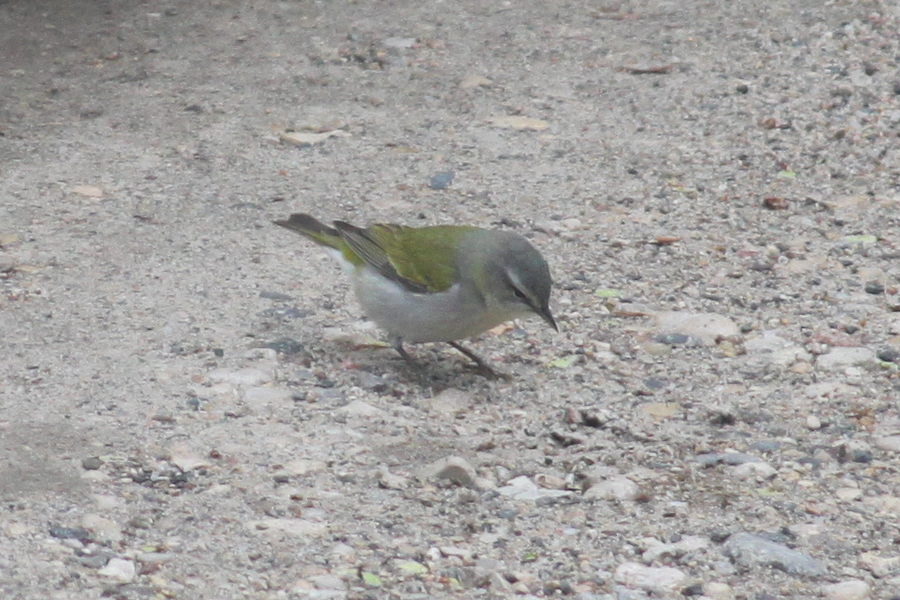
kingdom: Animalia
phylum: Chordata
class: Aves
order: Passeriformes
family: Parulidae
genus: Leiothlypis
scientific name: Leiothlypis peregrina
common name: Tennessee warbler
